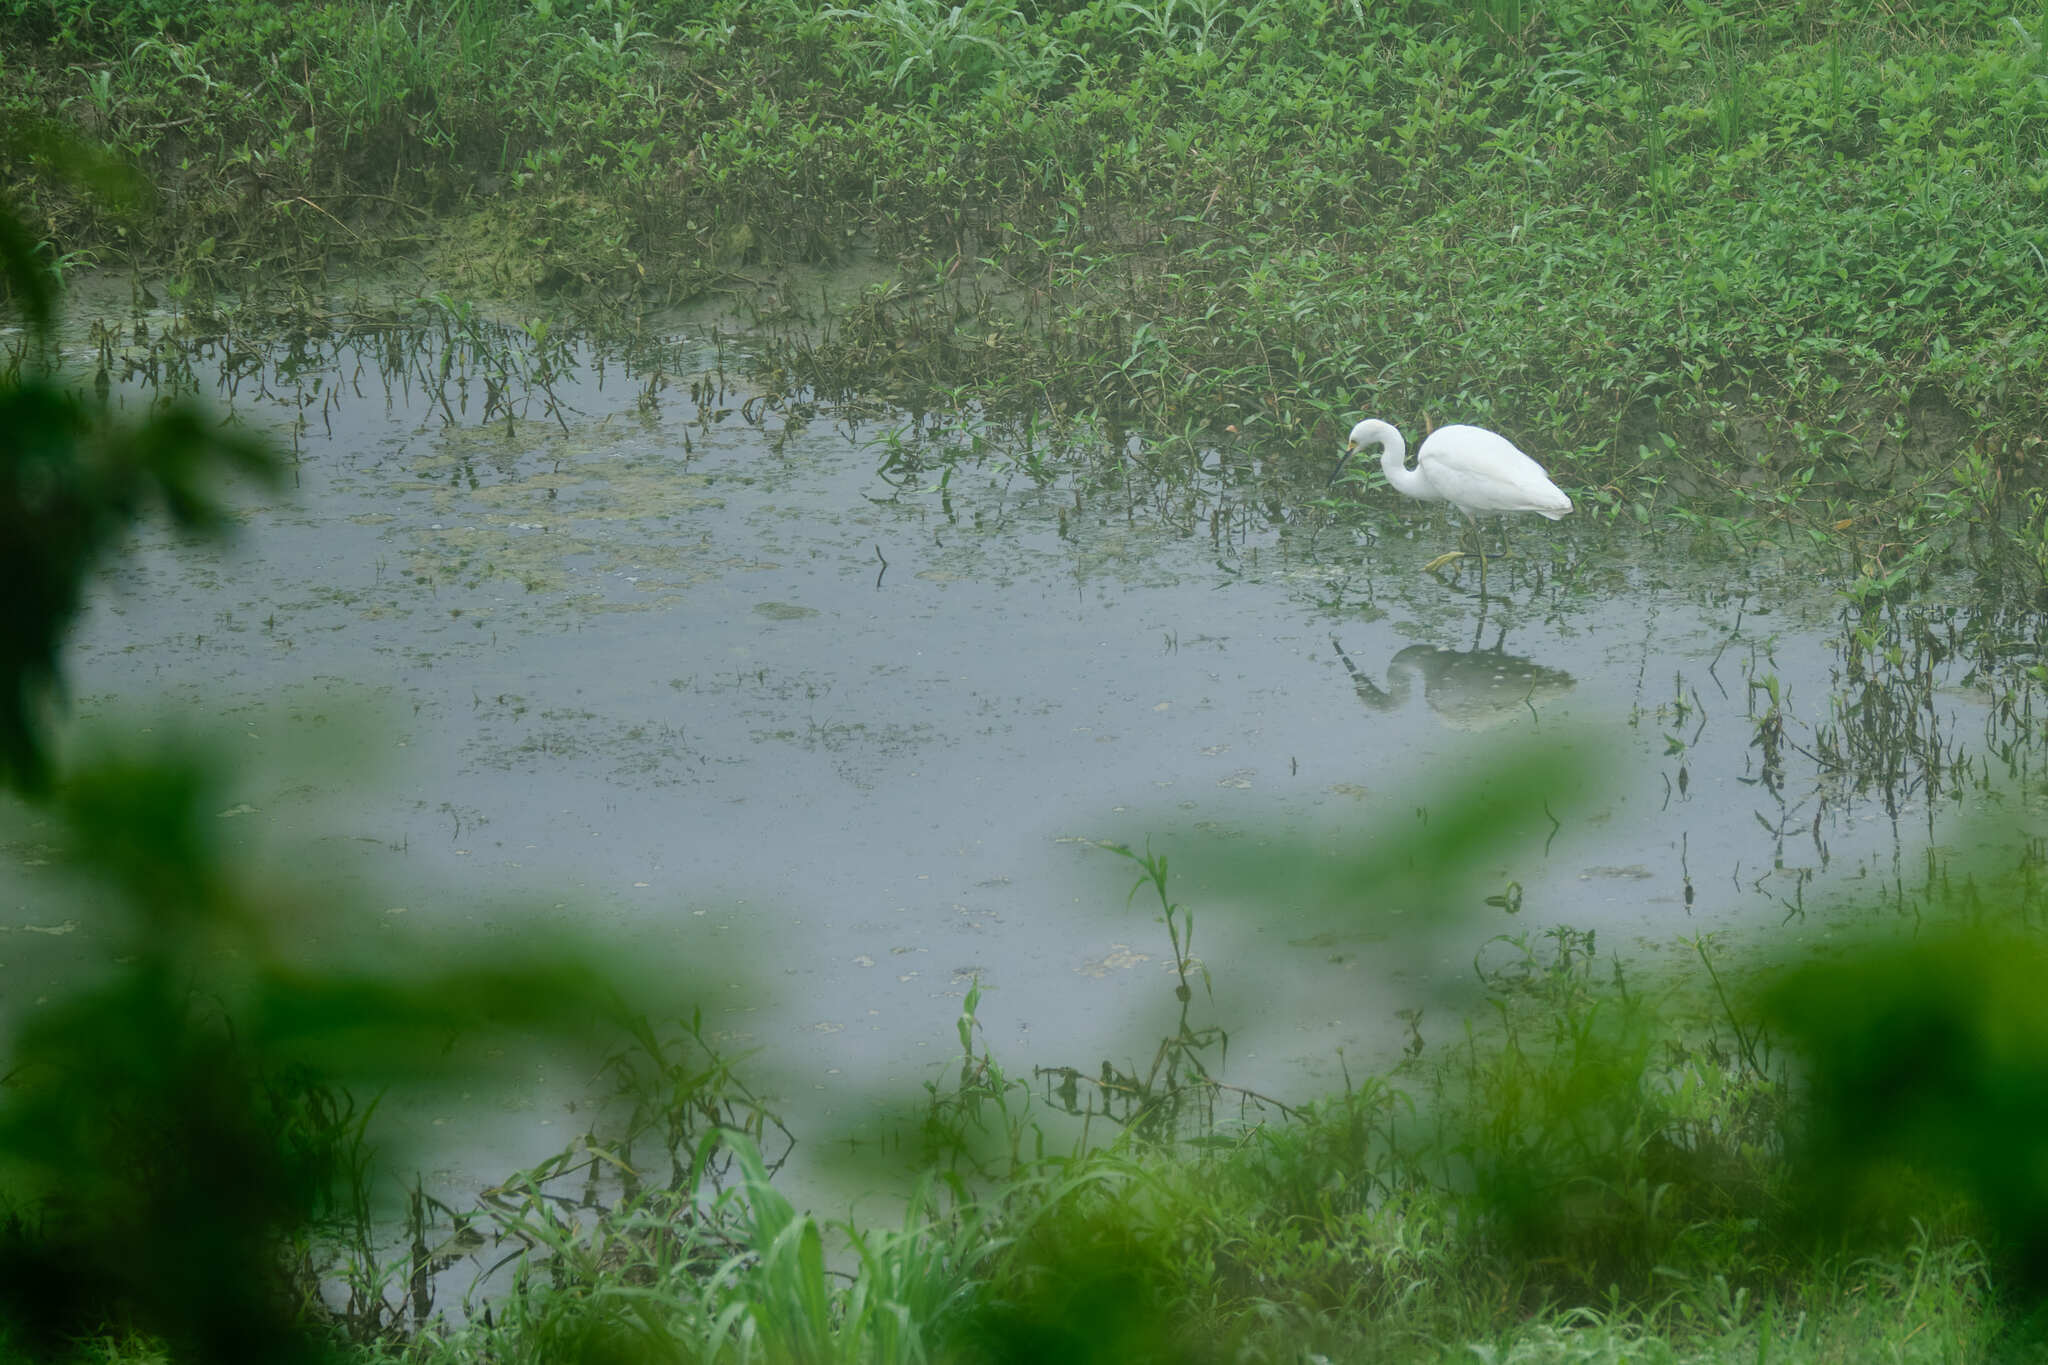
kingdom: Animalia
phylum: Chordata
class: Aves
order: Pelecaniformes
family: Ardeidae
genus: Egretta
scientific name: Egretta thula
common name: Snowy egret
